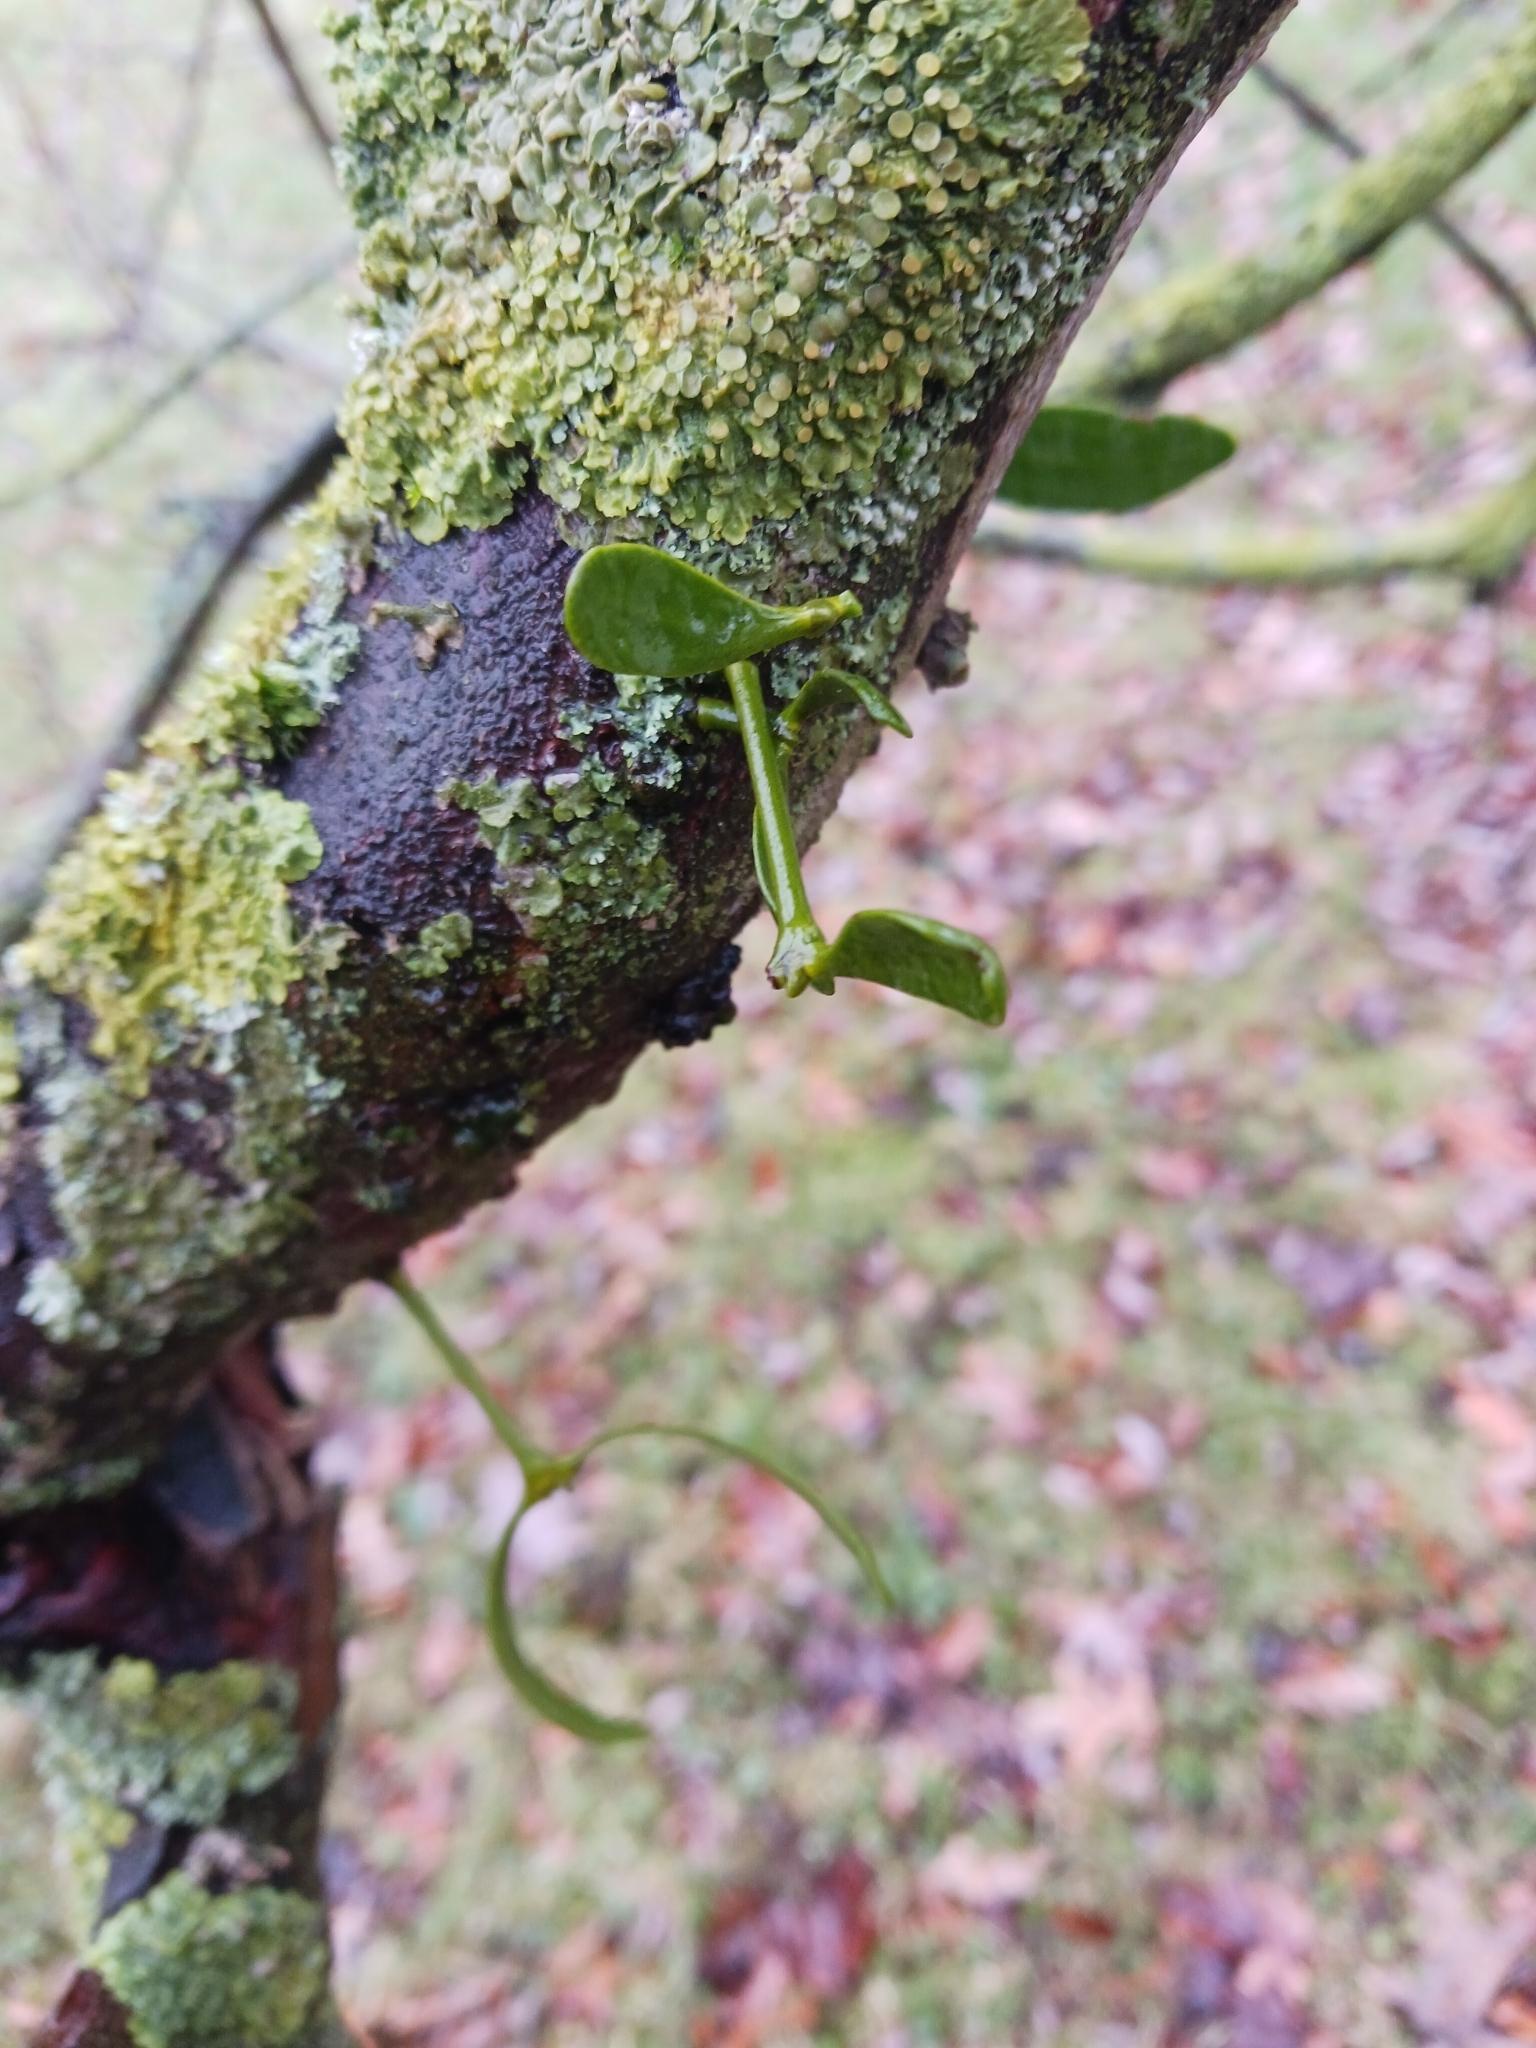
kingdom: Plantae
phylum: Tracheophyta
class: Magnoliopsida
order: Santalales
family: Viscaceae
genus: Viscum
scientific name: Viscum album
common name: Mistletoe
